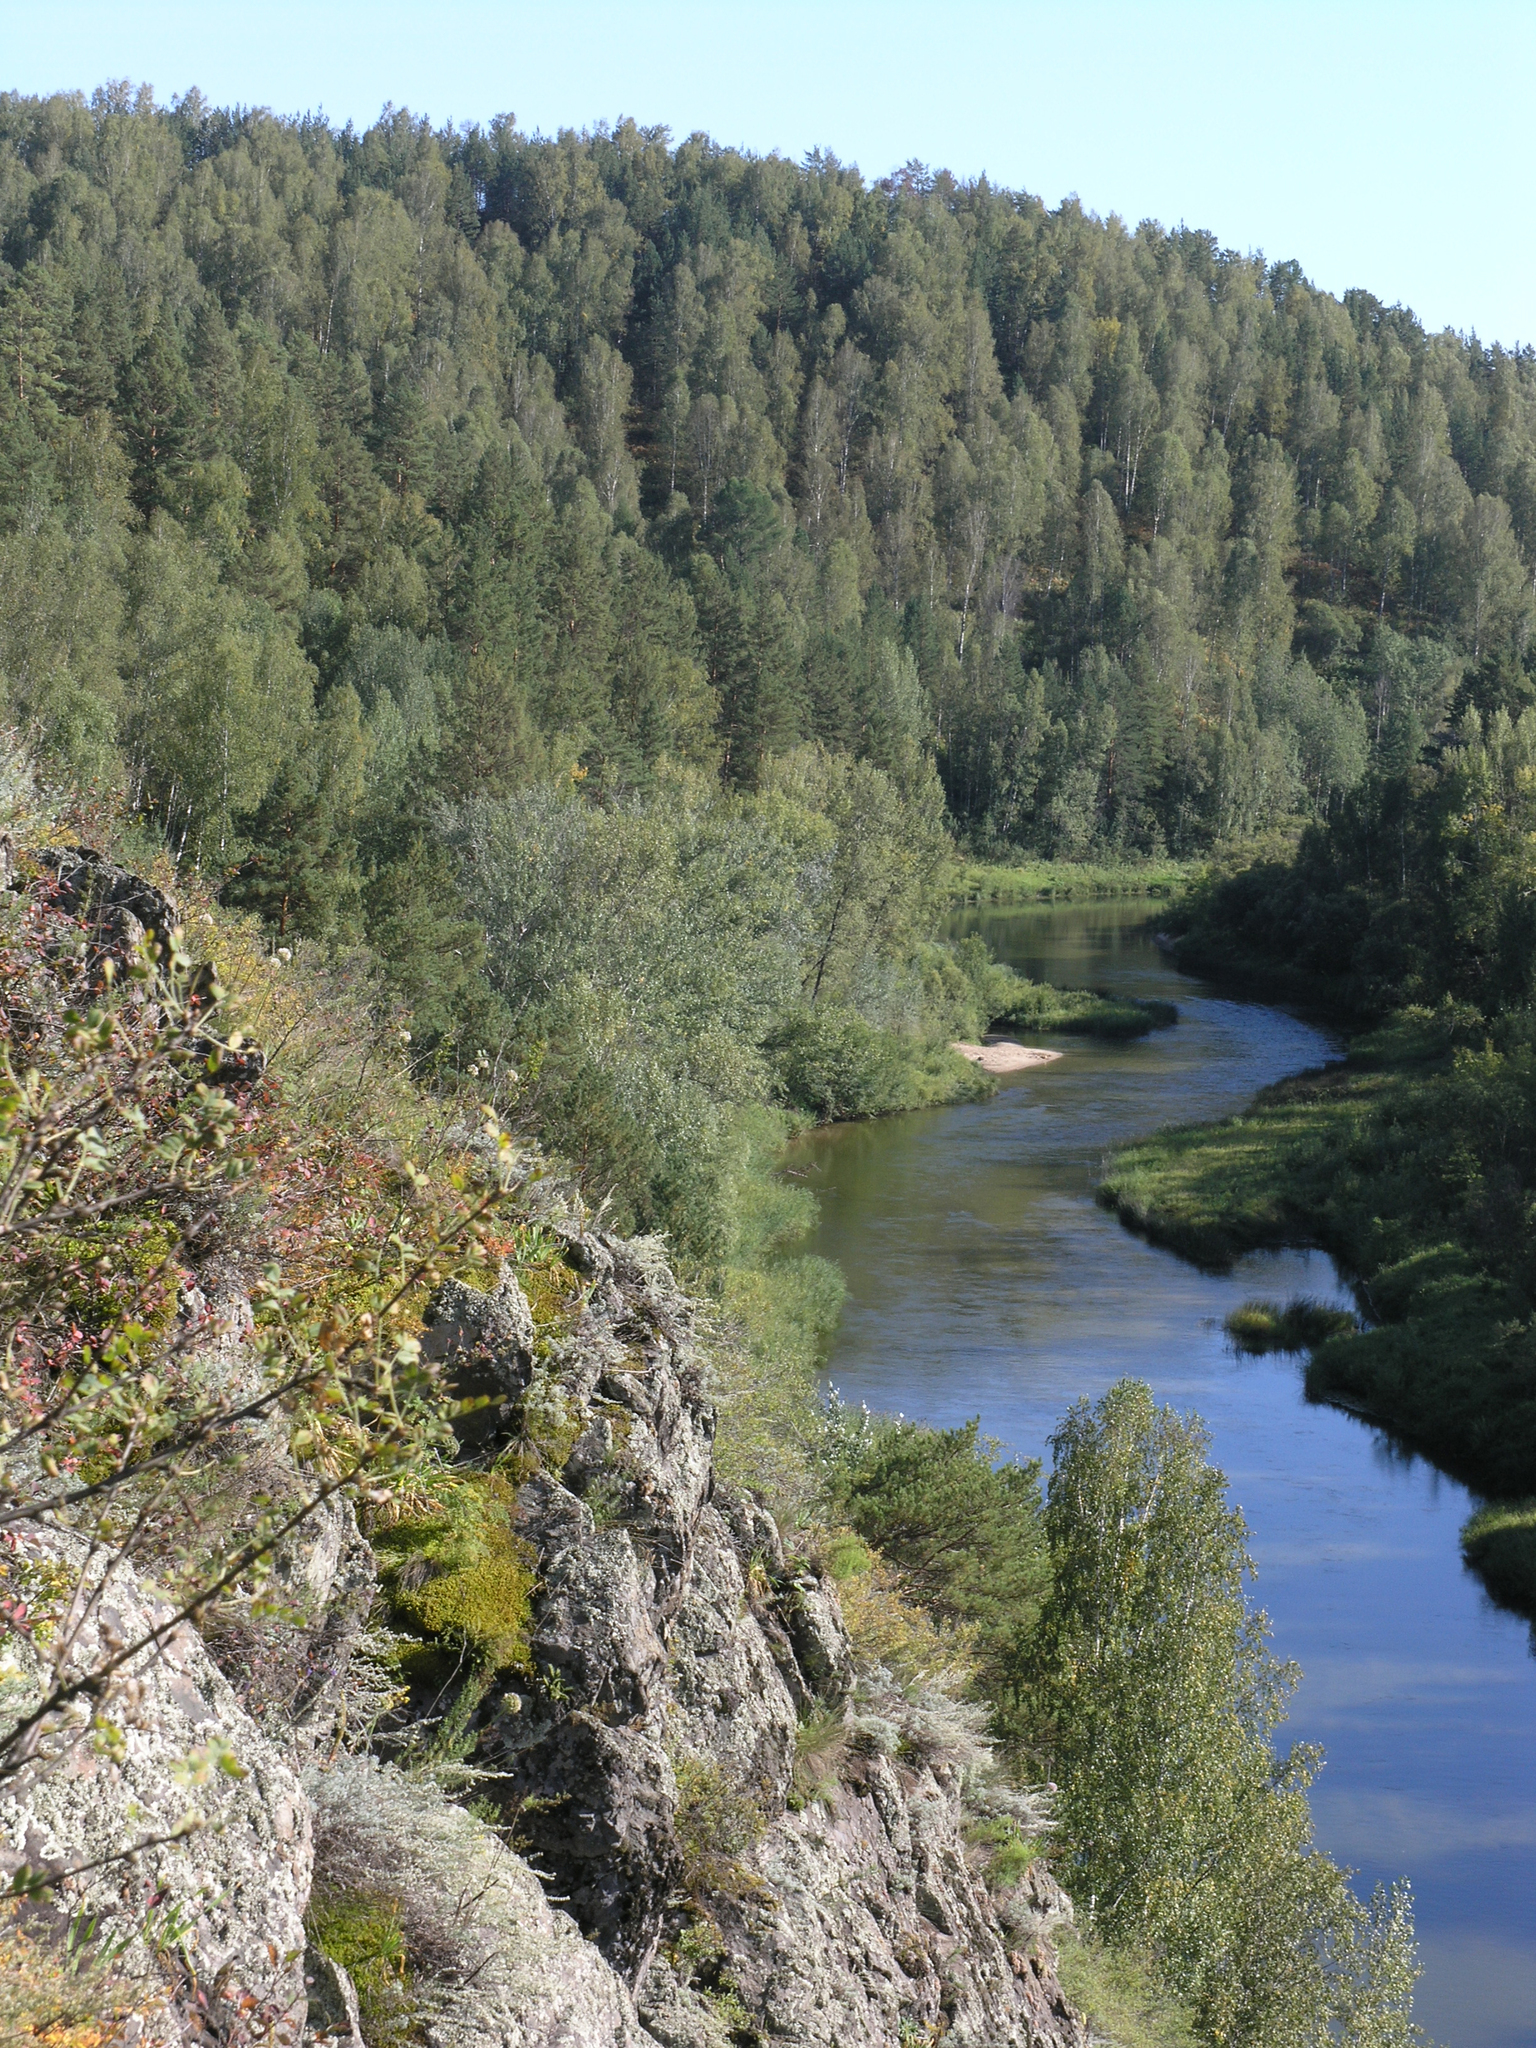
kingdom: Plantae
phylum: Tracheophyta
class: Magnoliopsida
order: Fabales
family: Fabaceae
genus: Caragana
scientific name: Caragana arborescens
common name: Siberian peashrub
